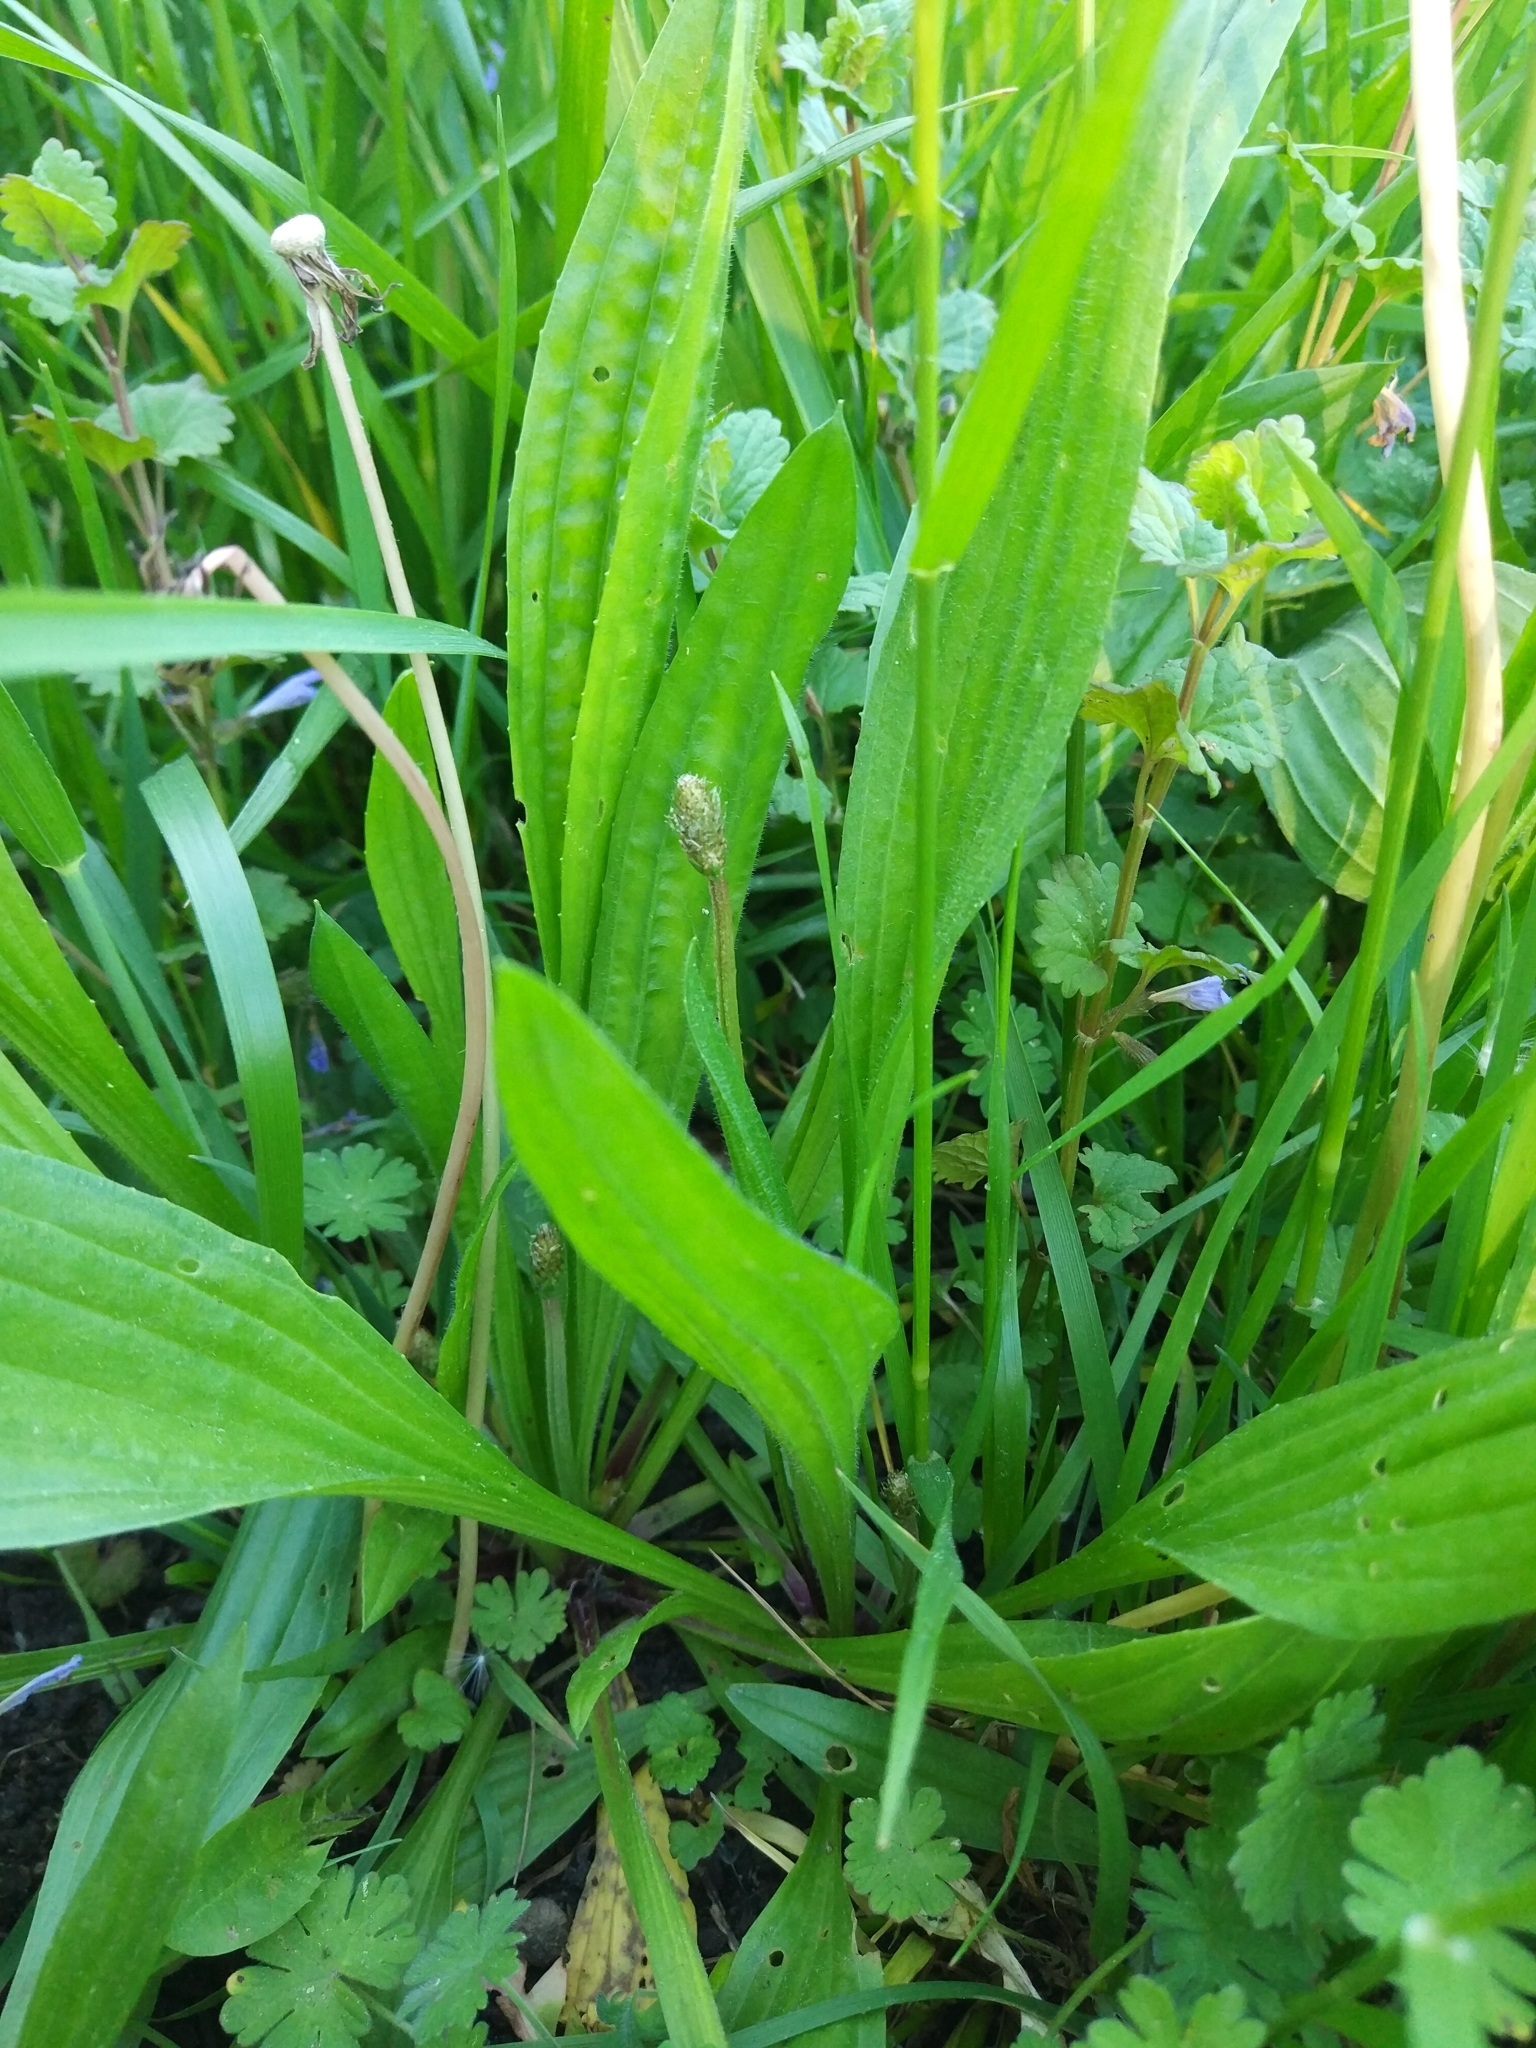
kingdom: Plantae
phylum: Tracheophyta
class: Magnoliopsida
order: Lamiales
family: Plantaginaceae
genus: Plantago
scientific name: Plantago lanceolata
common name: Ribwort plantain
